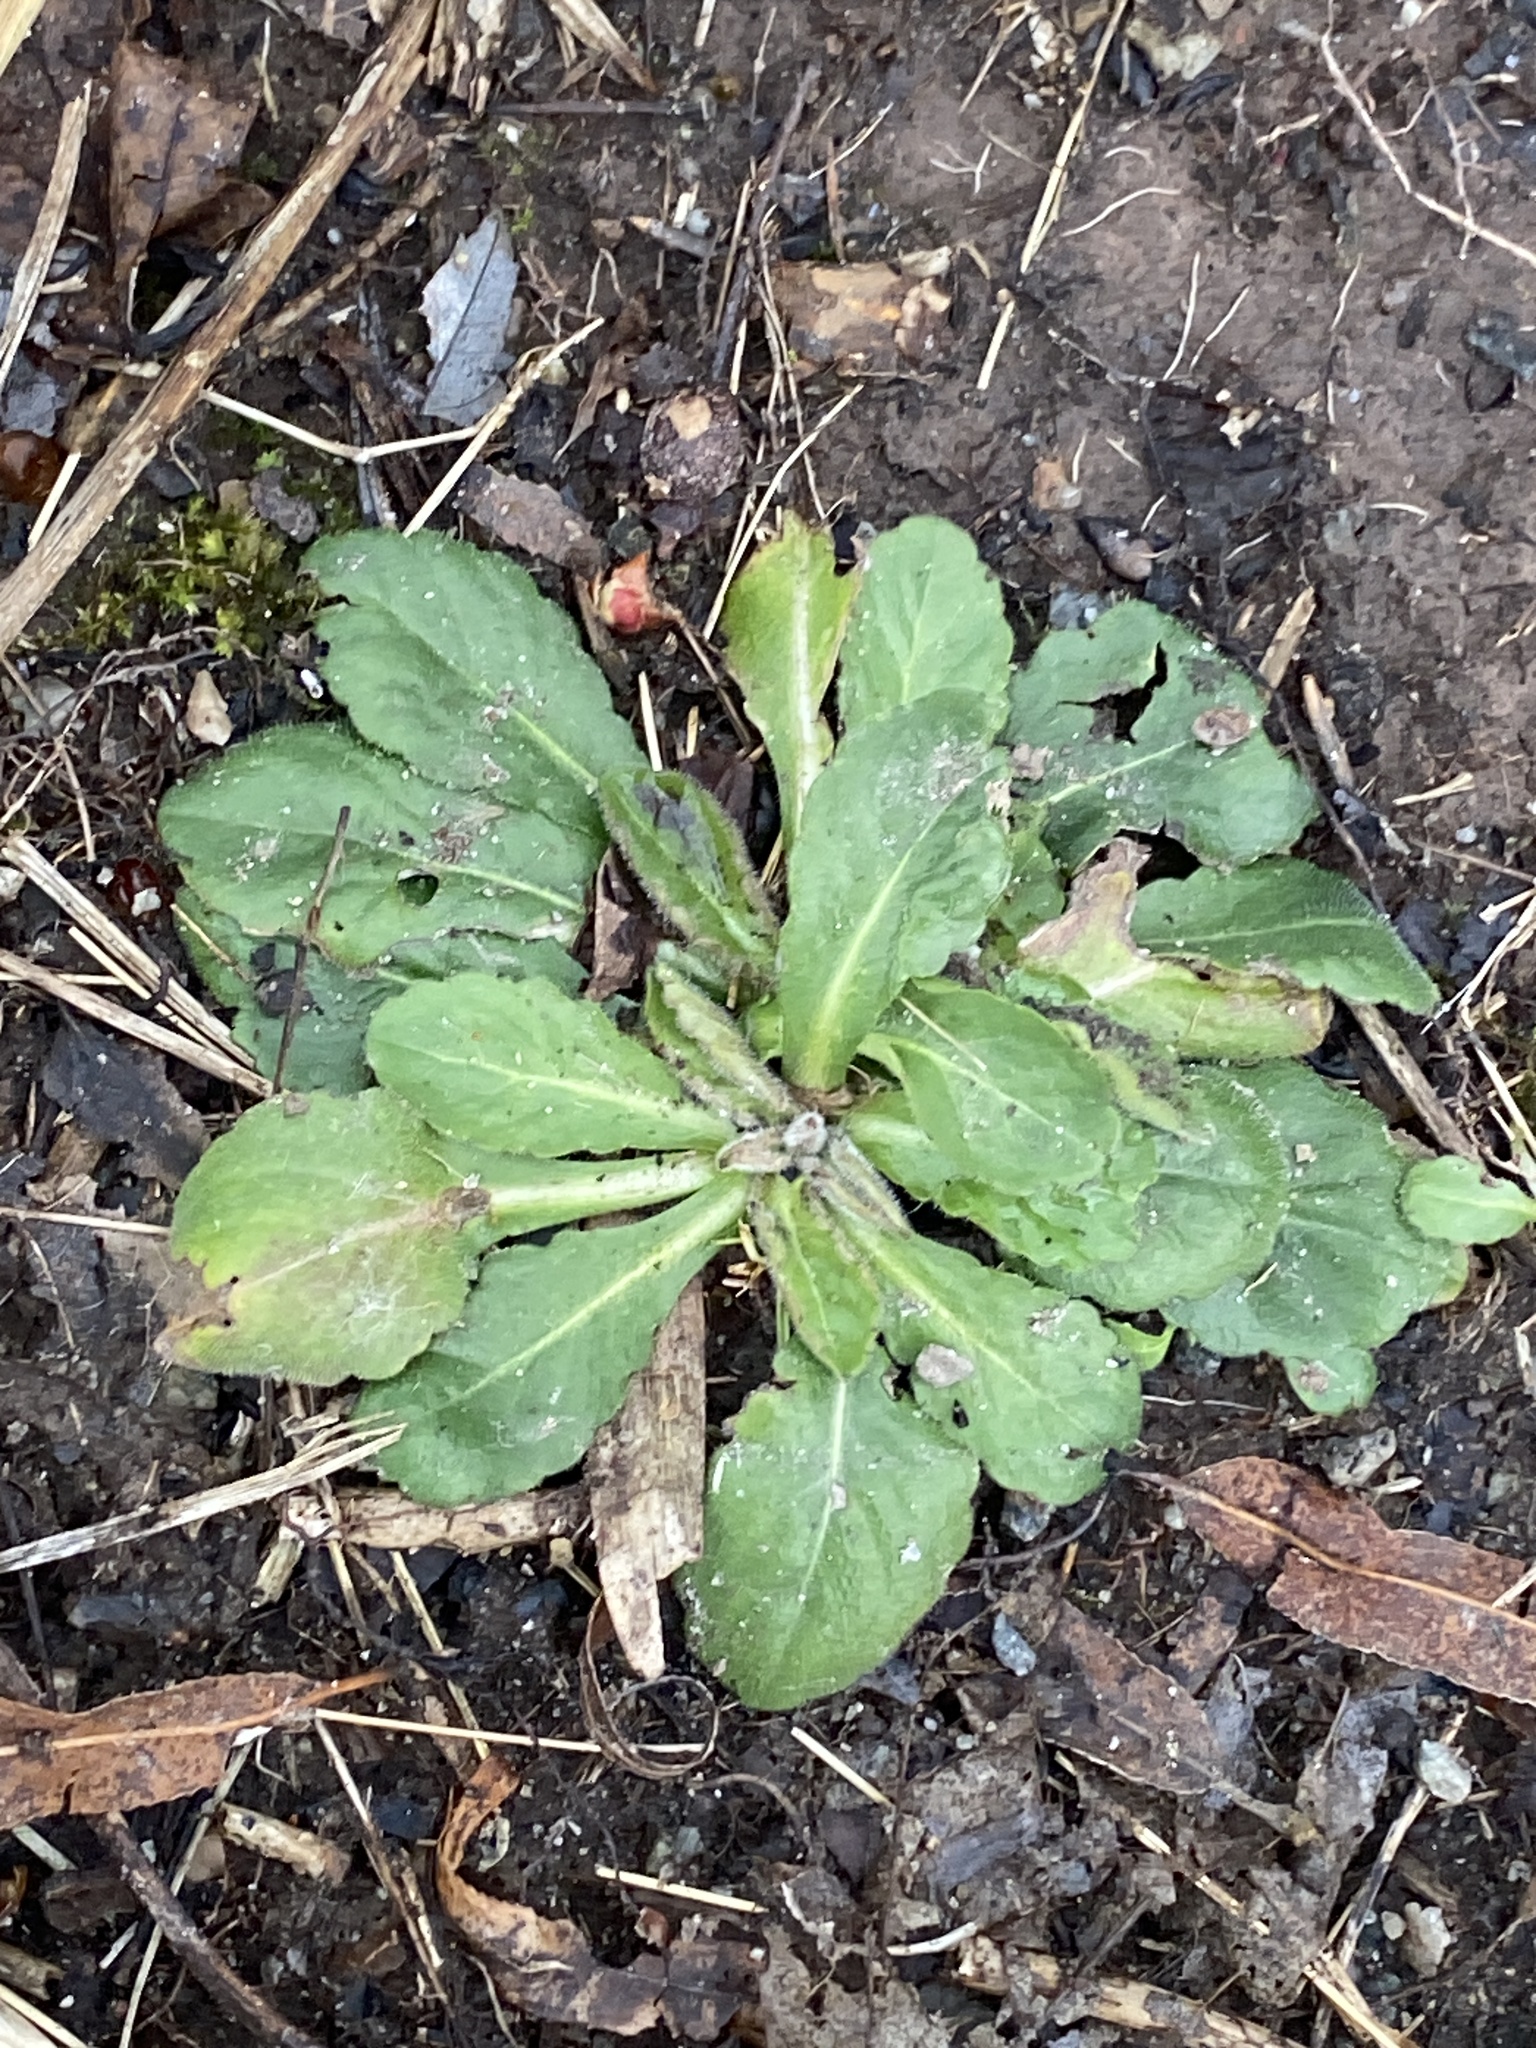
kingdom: Plantae
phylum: Tracheophyta
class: Magnoliopsida
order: Asterales
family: Asteraceae
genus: Hypochaeris
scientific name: Hypochaeris radicata
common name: Flatweed
